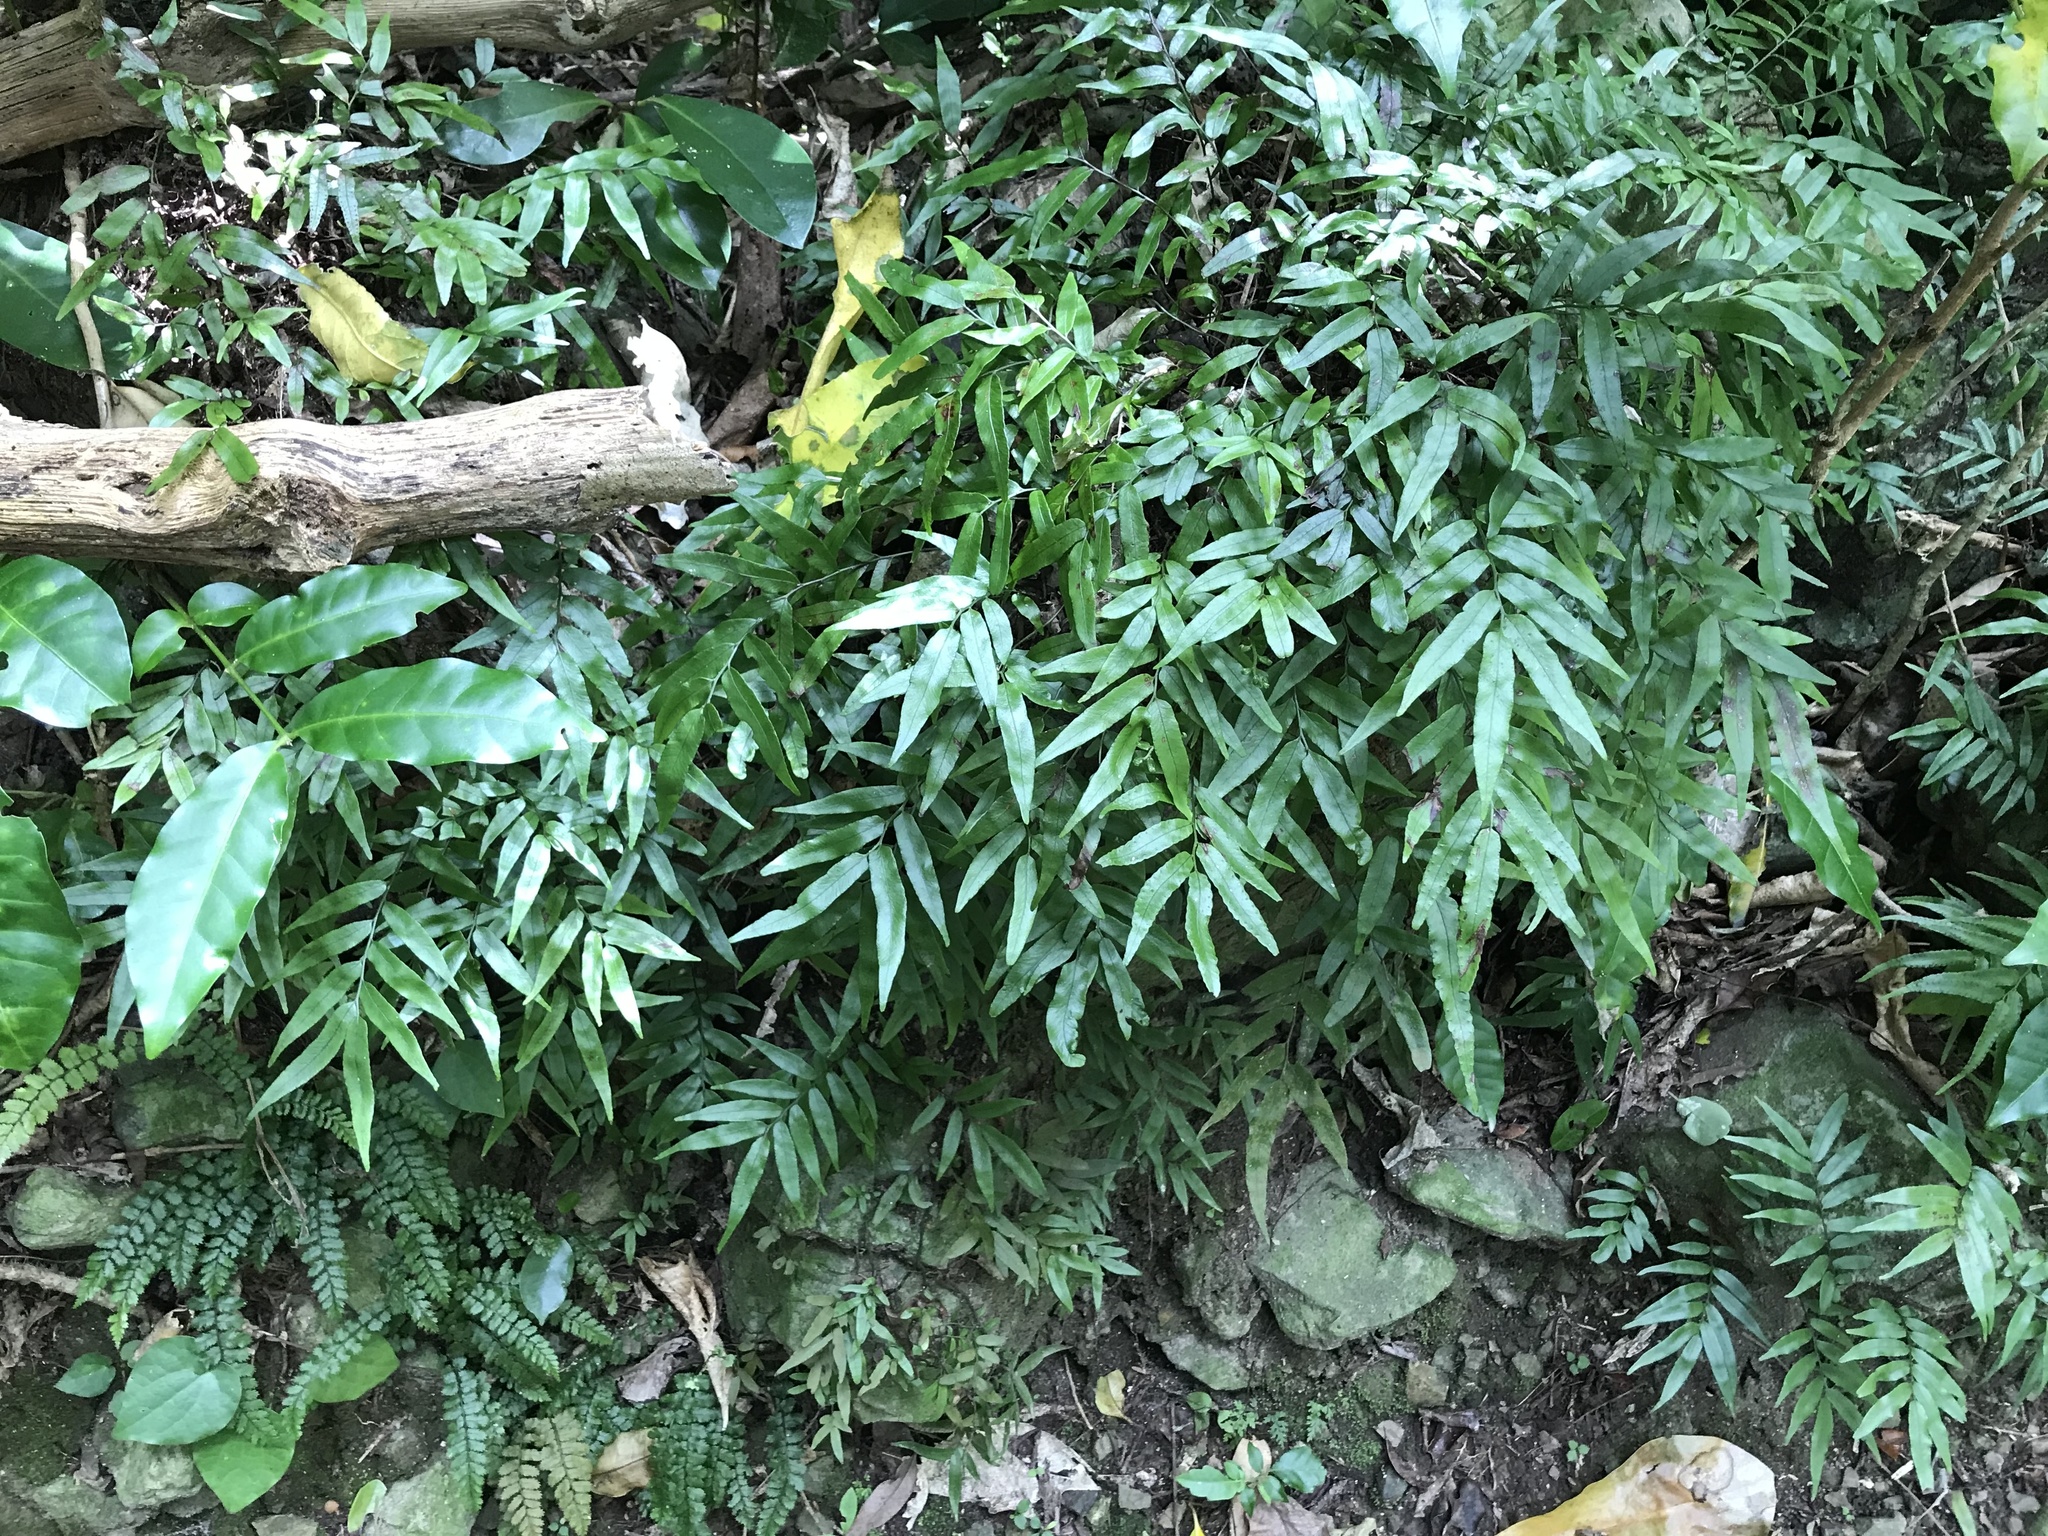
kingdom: Plantae
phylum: Tracheophyta
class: Polypodiopsida
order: Polypodiales
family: Tectariaceae
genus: Arthropteris
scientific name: Arthropteris tenella
